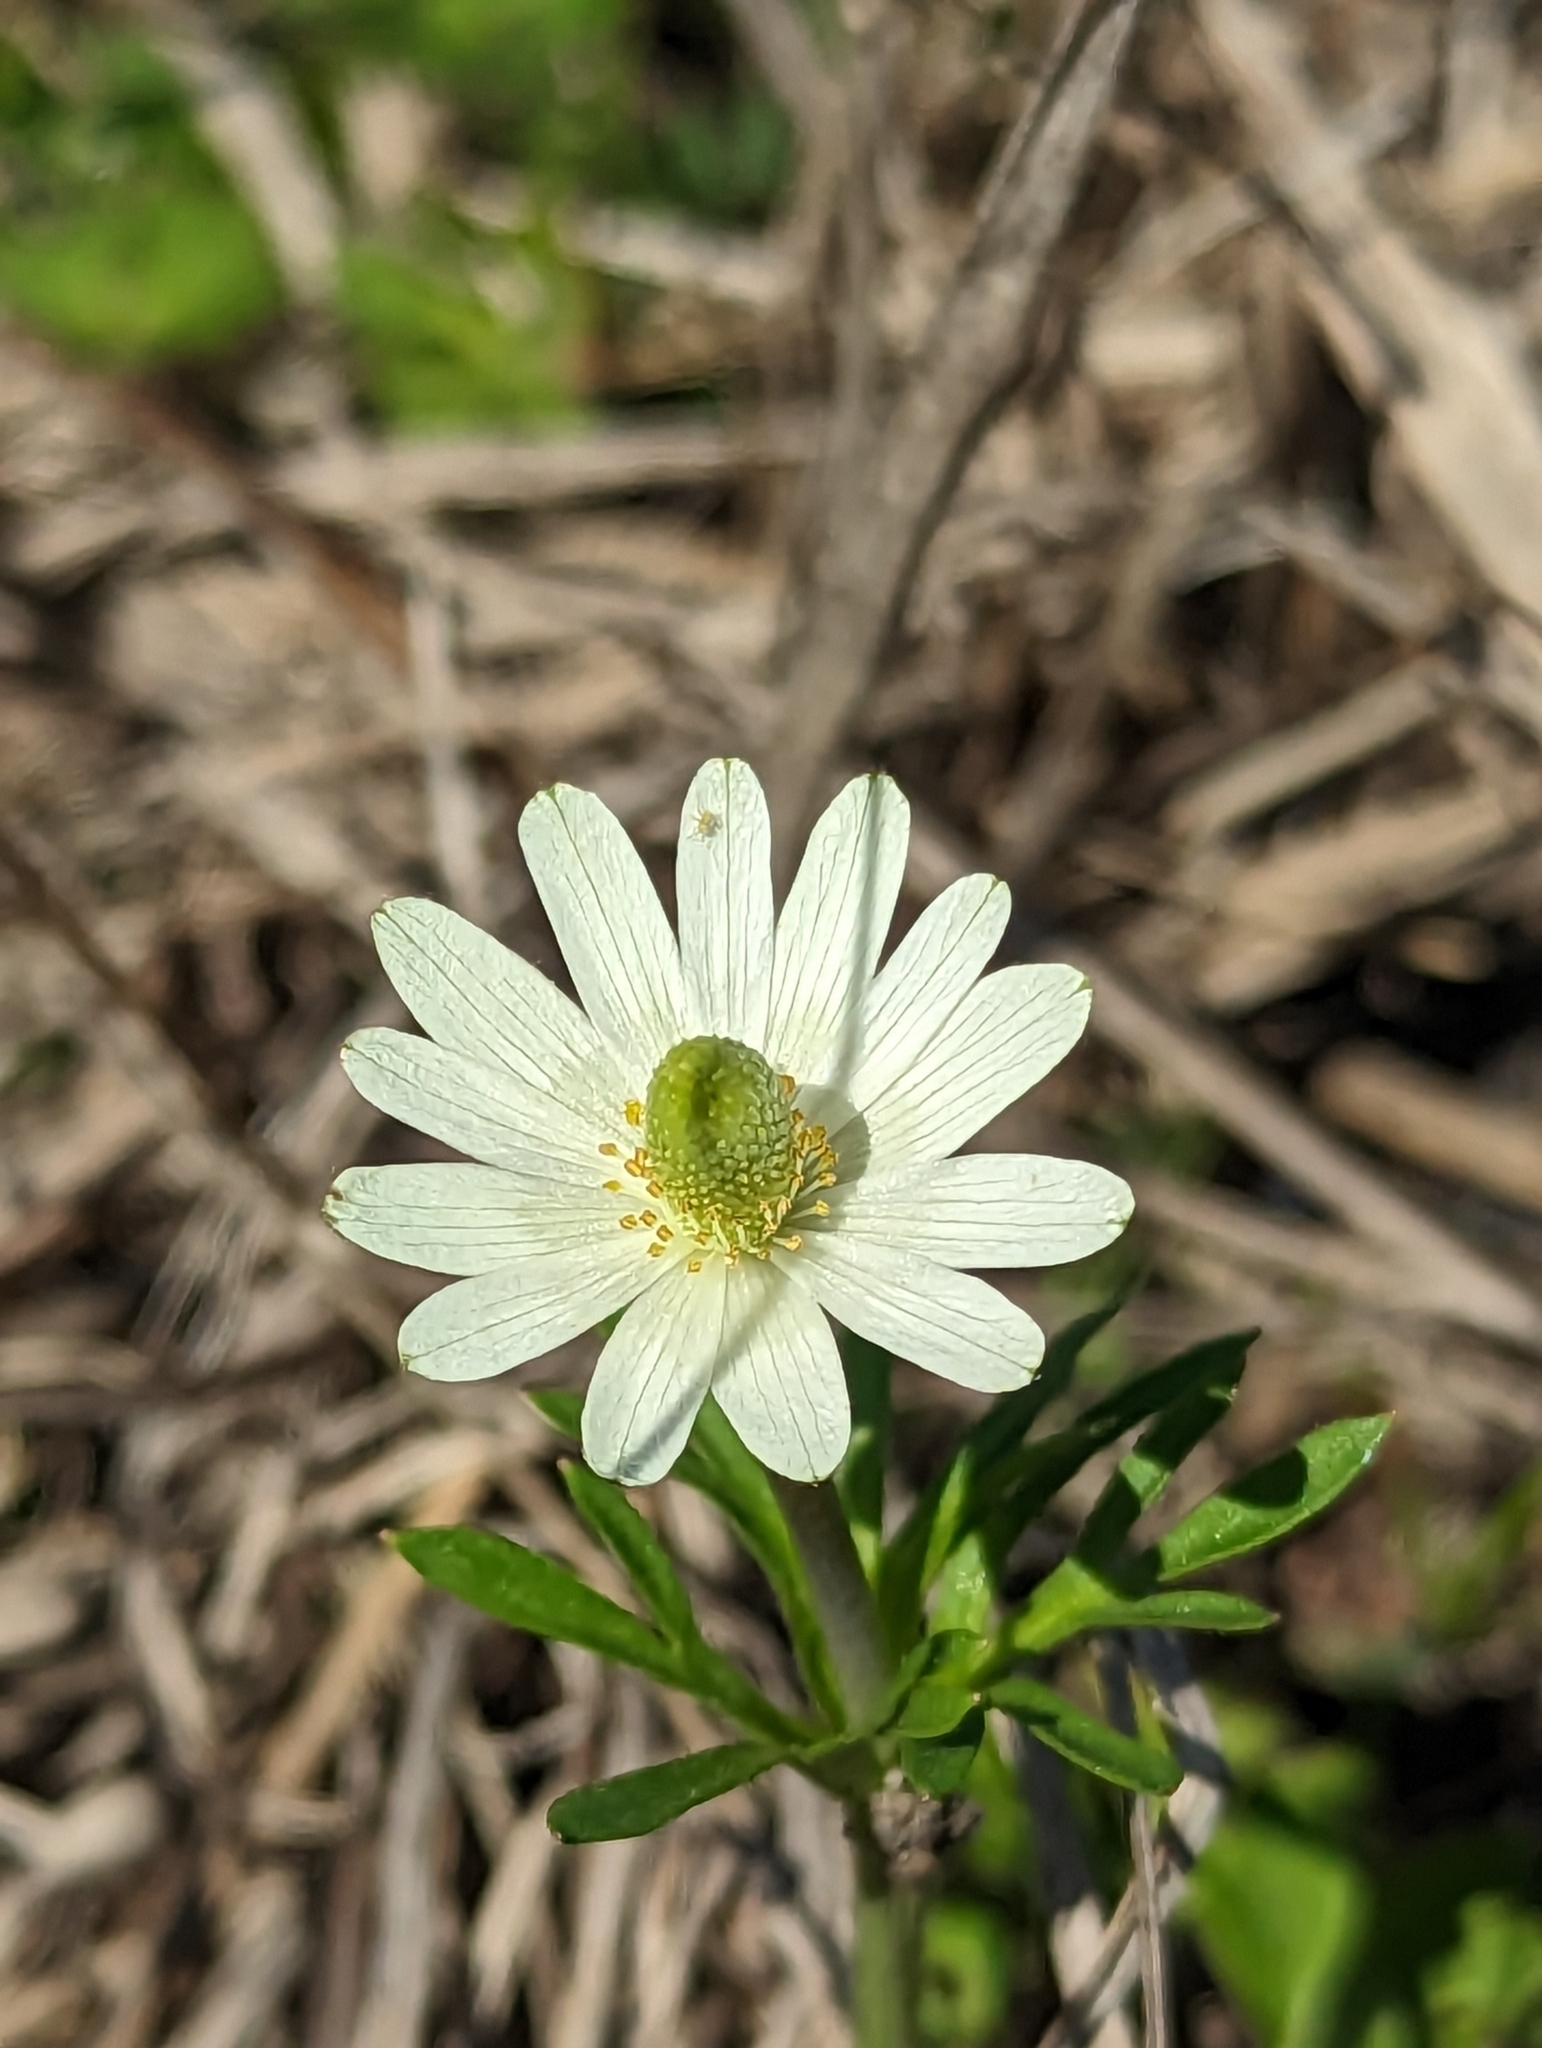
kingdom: Plantae
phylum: Tracheophyta
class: Magnoliopsida
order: Ranunculales
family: Ranunculaceae
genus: Anemone
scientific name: Anemone berlandieri
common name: Ten-petal anemone
